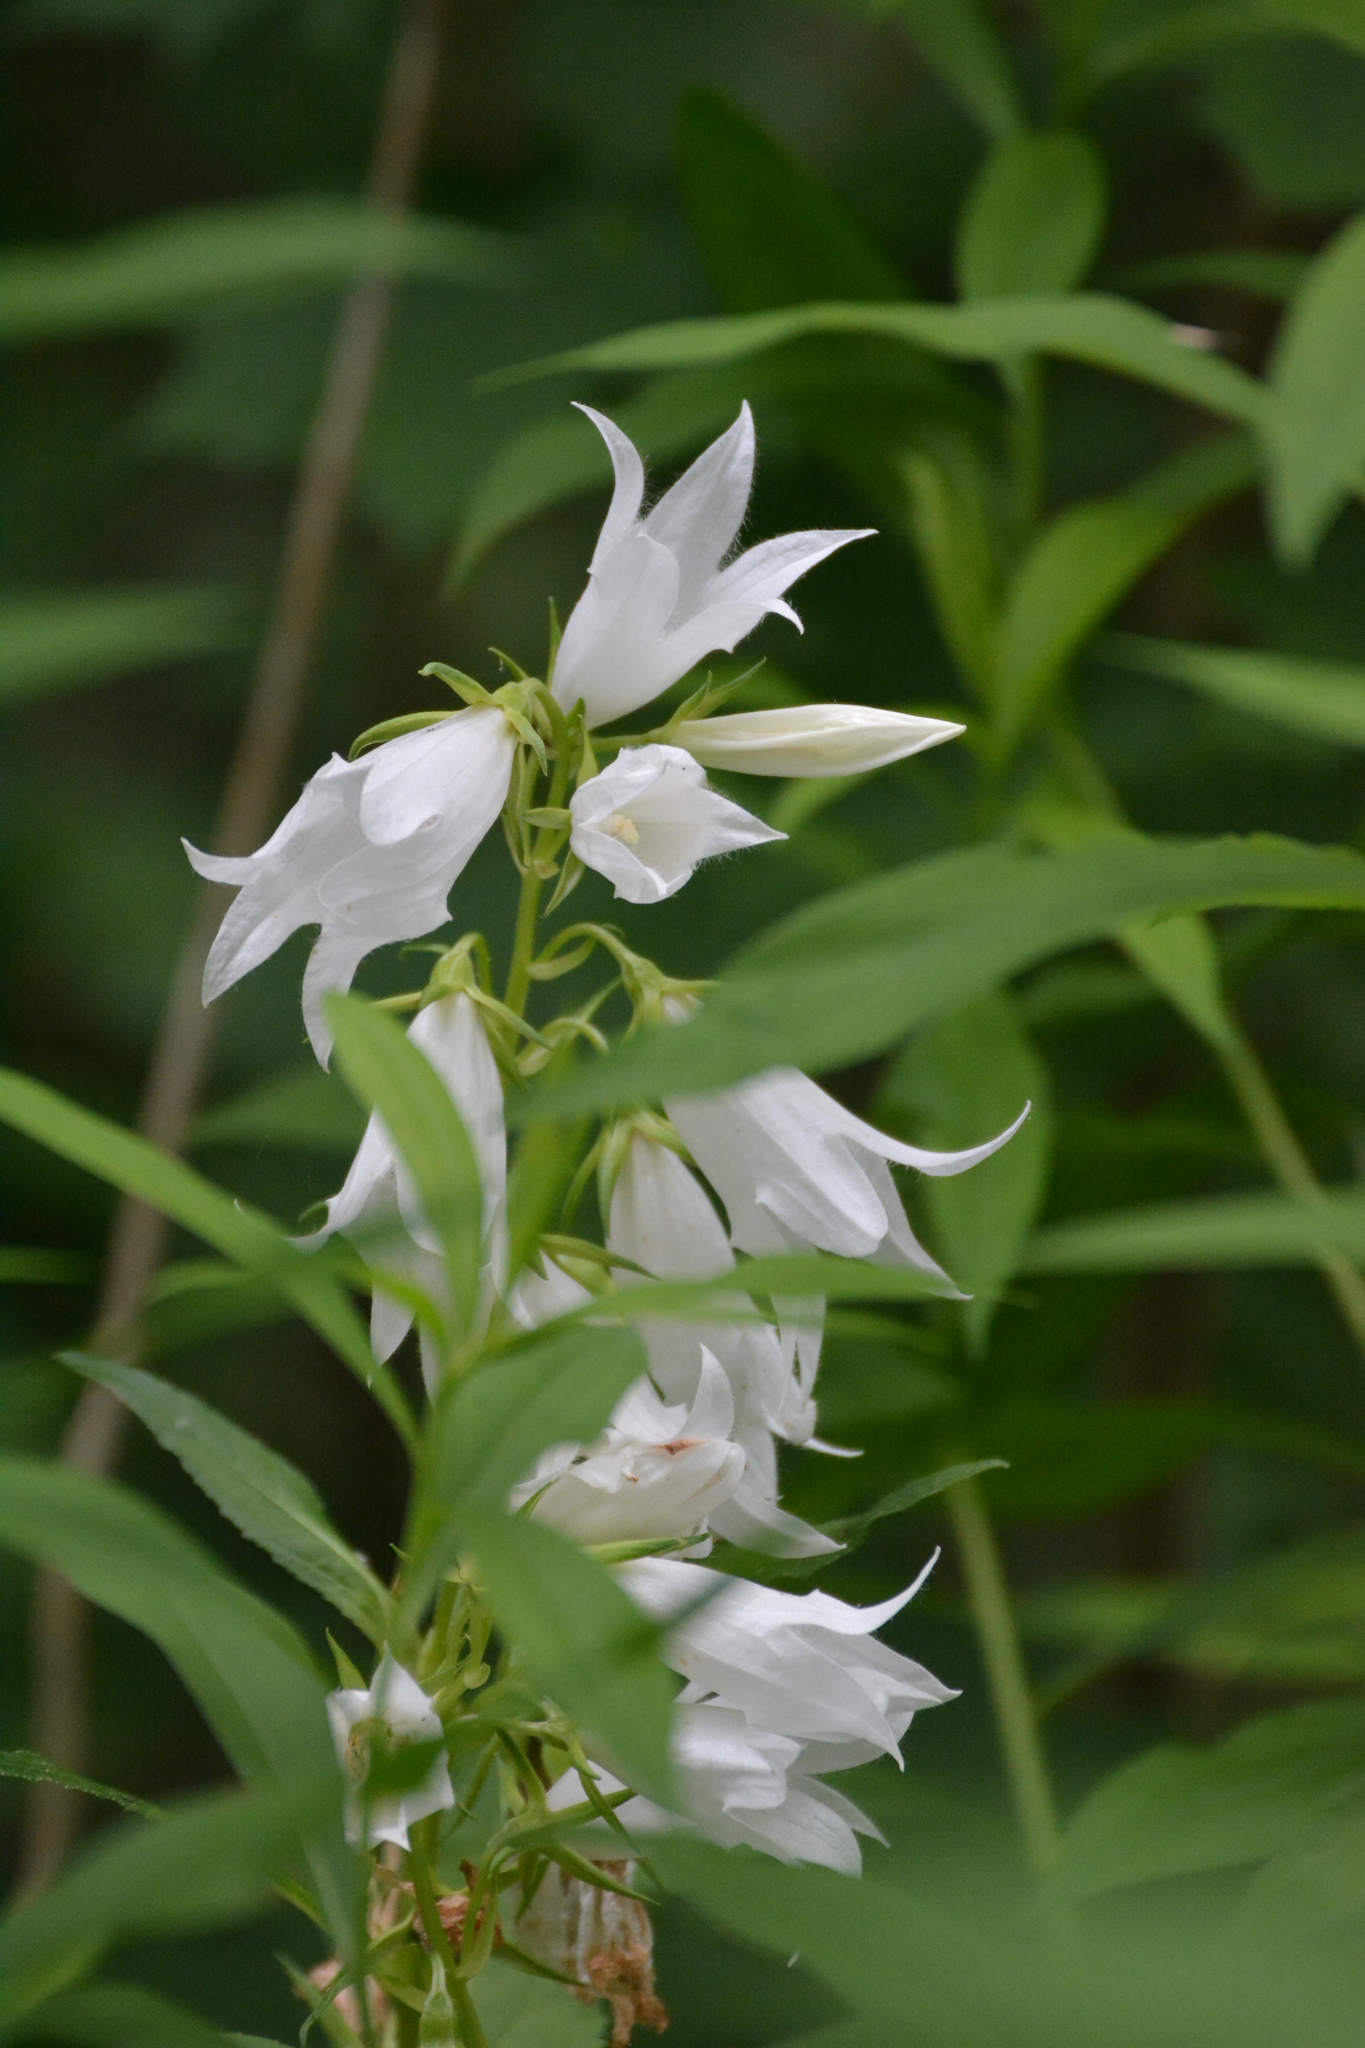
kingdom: Plantae
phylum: Tracheophyta
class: Magnoliopsida
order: Asterales
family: Campanulaceae
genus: Campanula
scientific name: Campanula latifolia
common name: Giant bellflower
